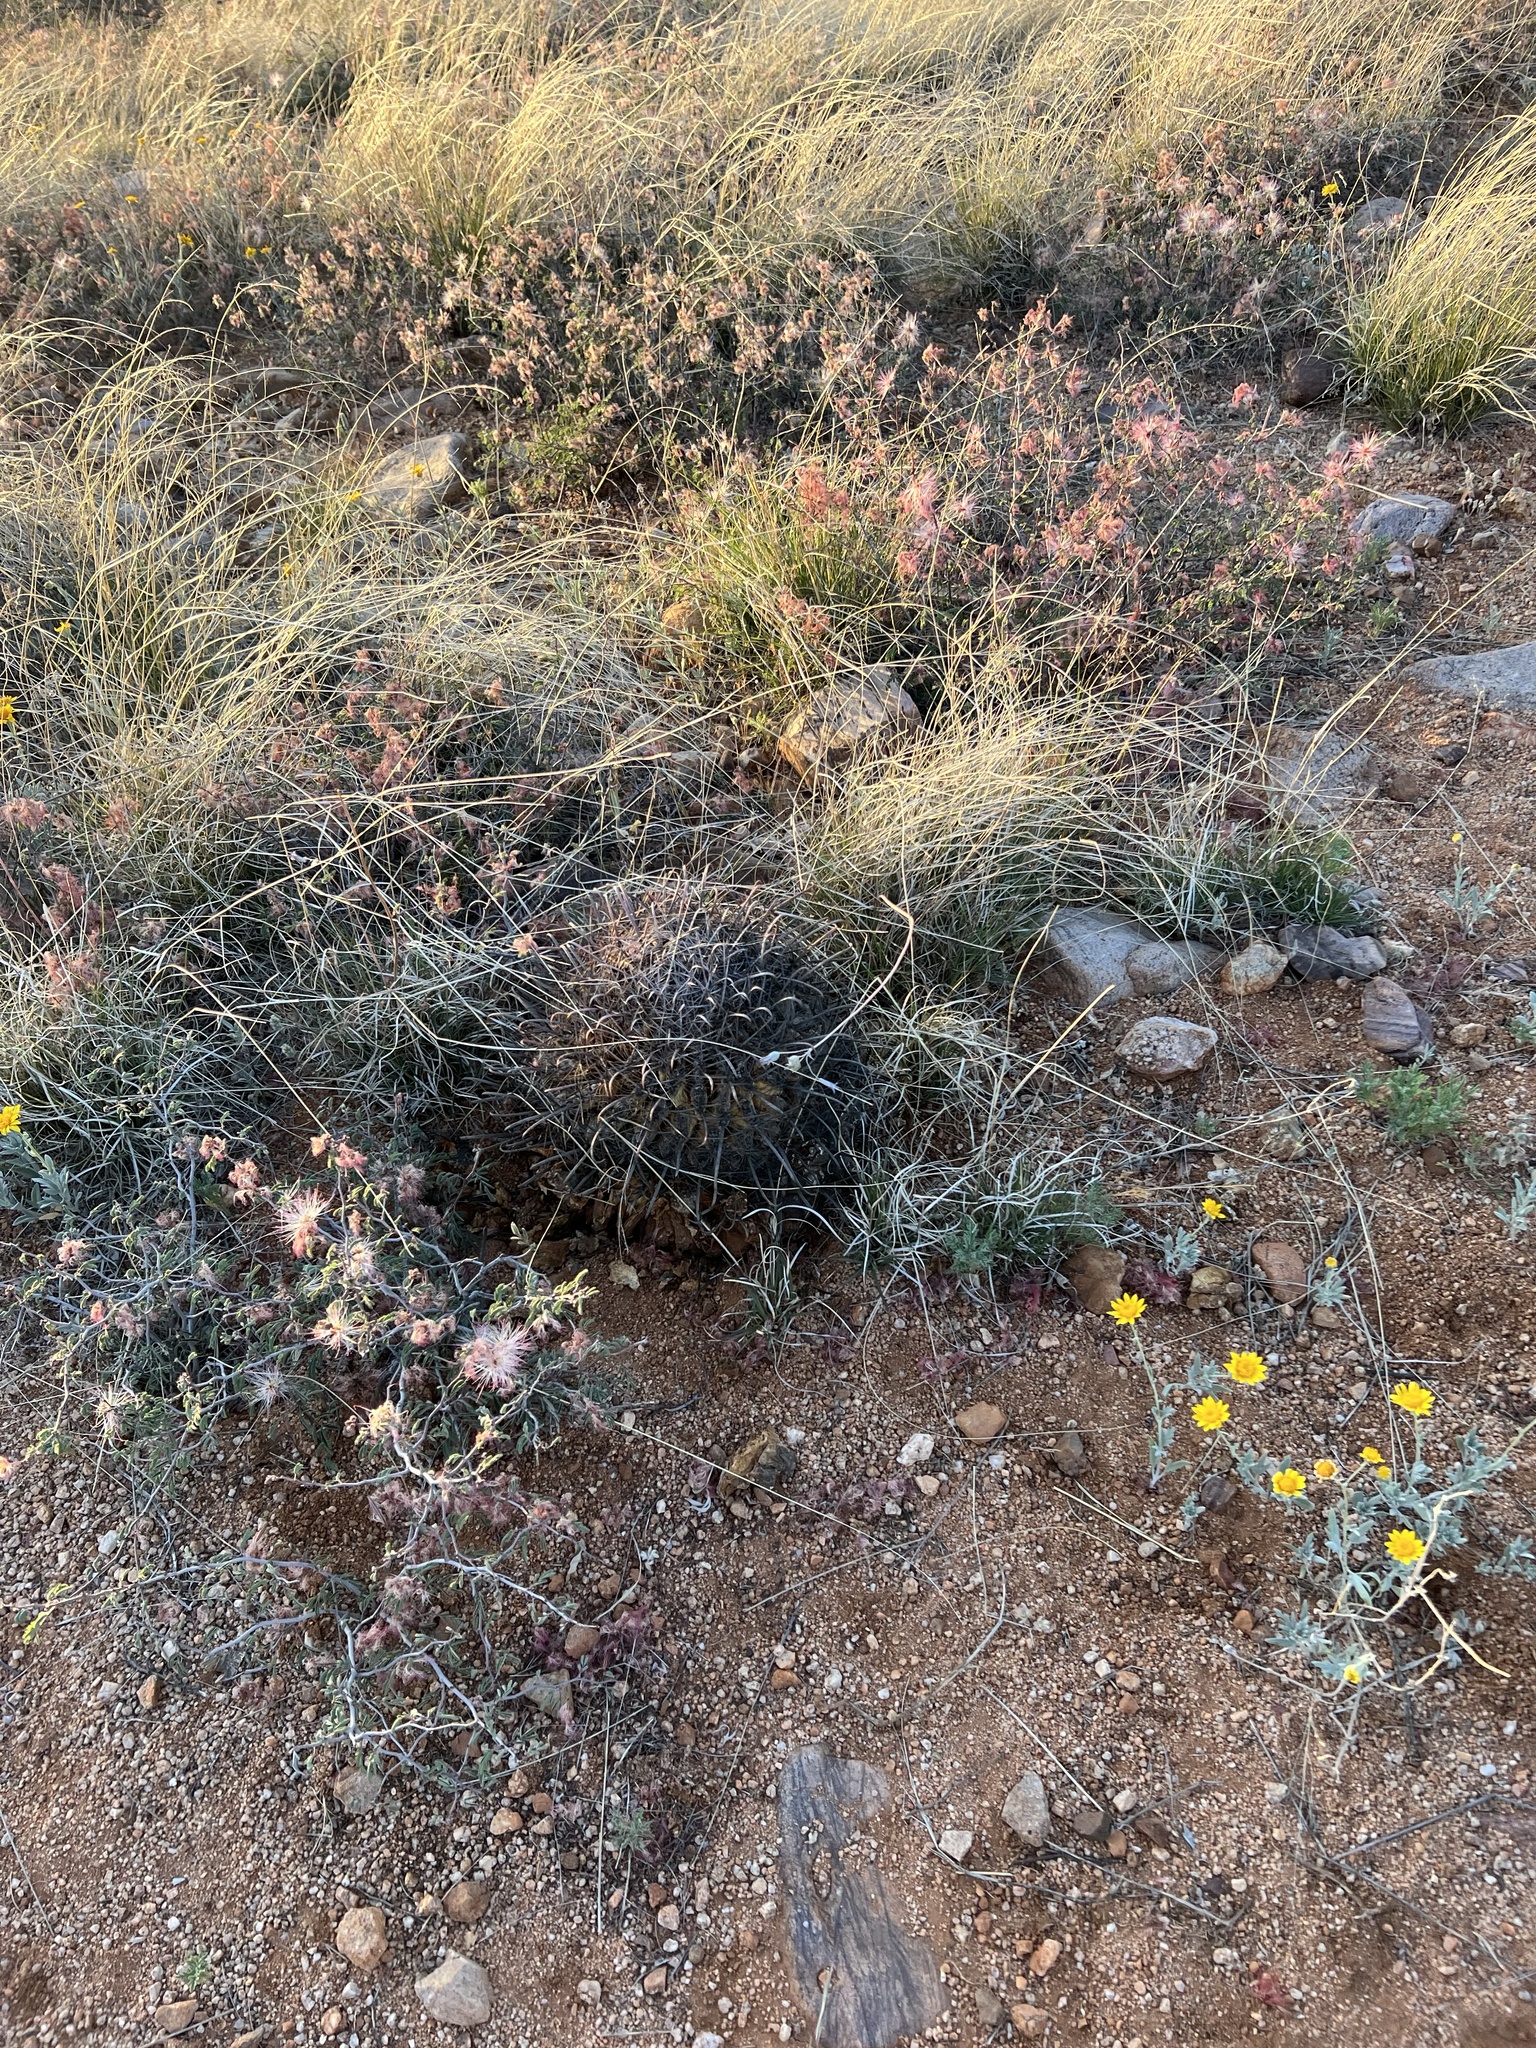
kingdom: Plantae
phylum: Tracheophyta
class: Magnoliopsida
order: Caryophyllales
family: Cactaceae
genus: Ferocactus
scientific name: Ferocactus wislizeni
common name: Candy barrel cactus
